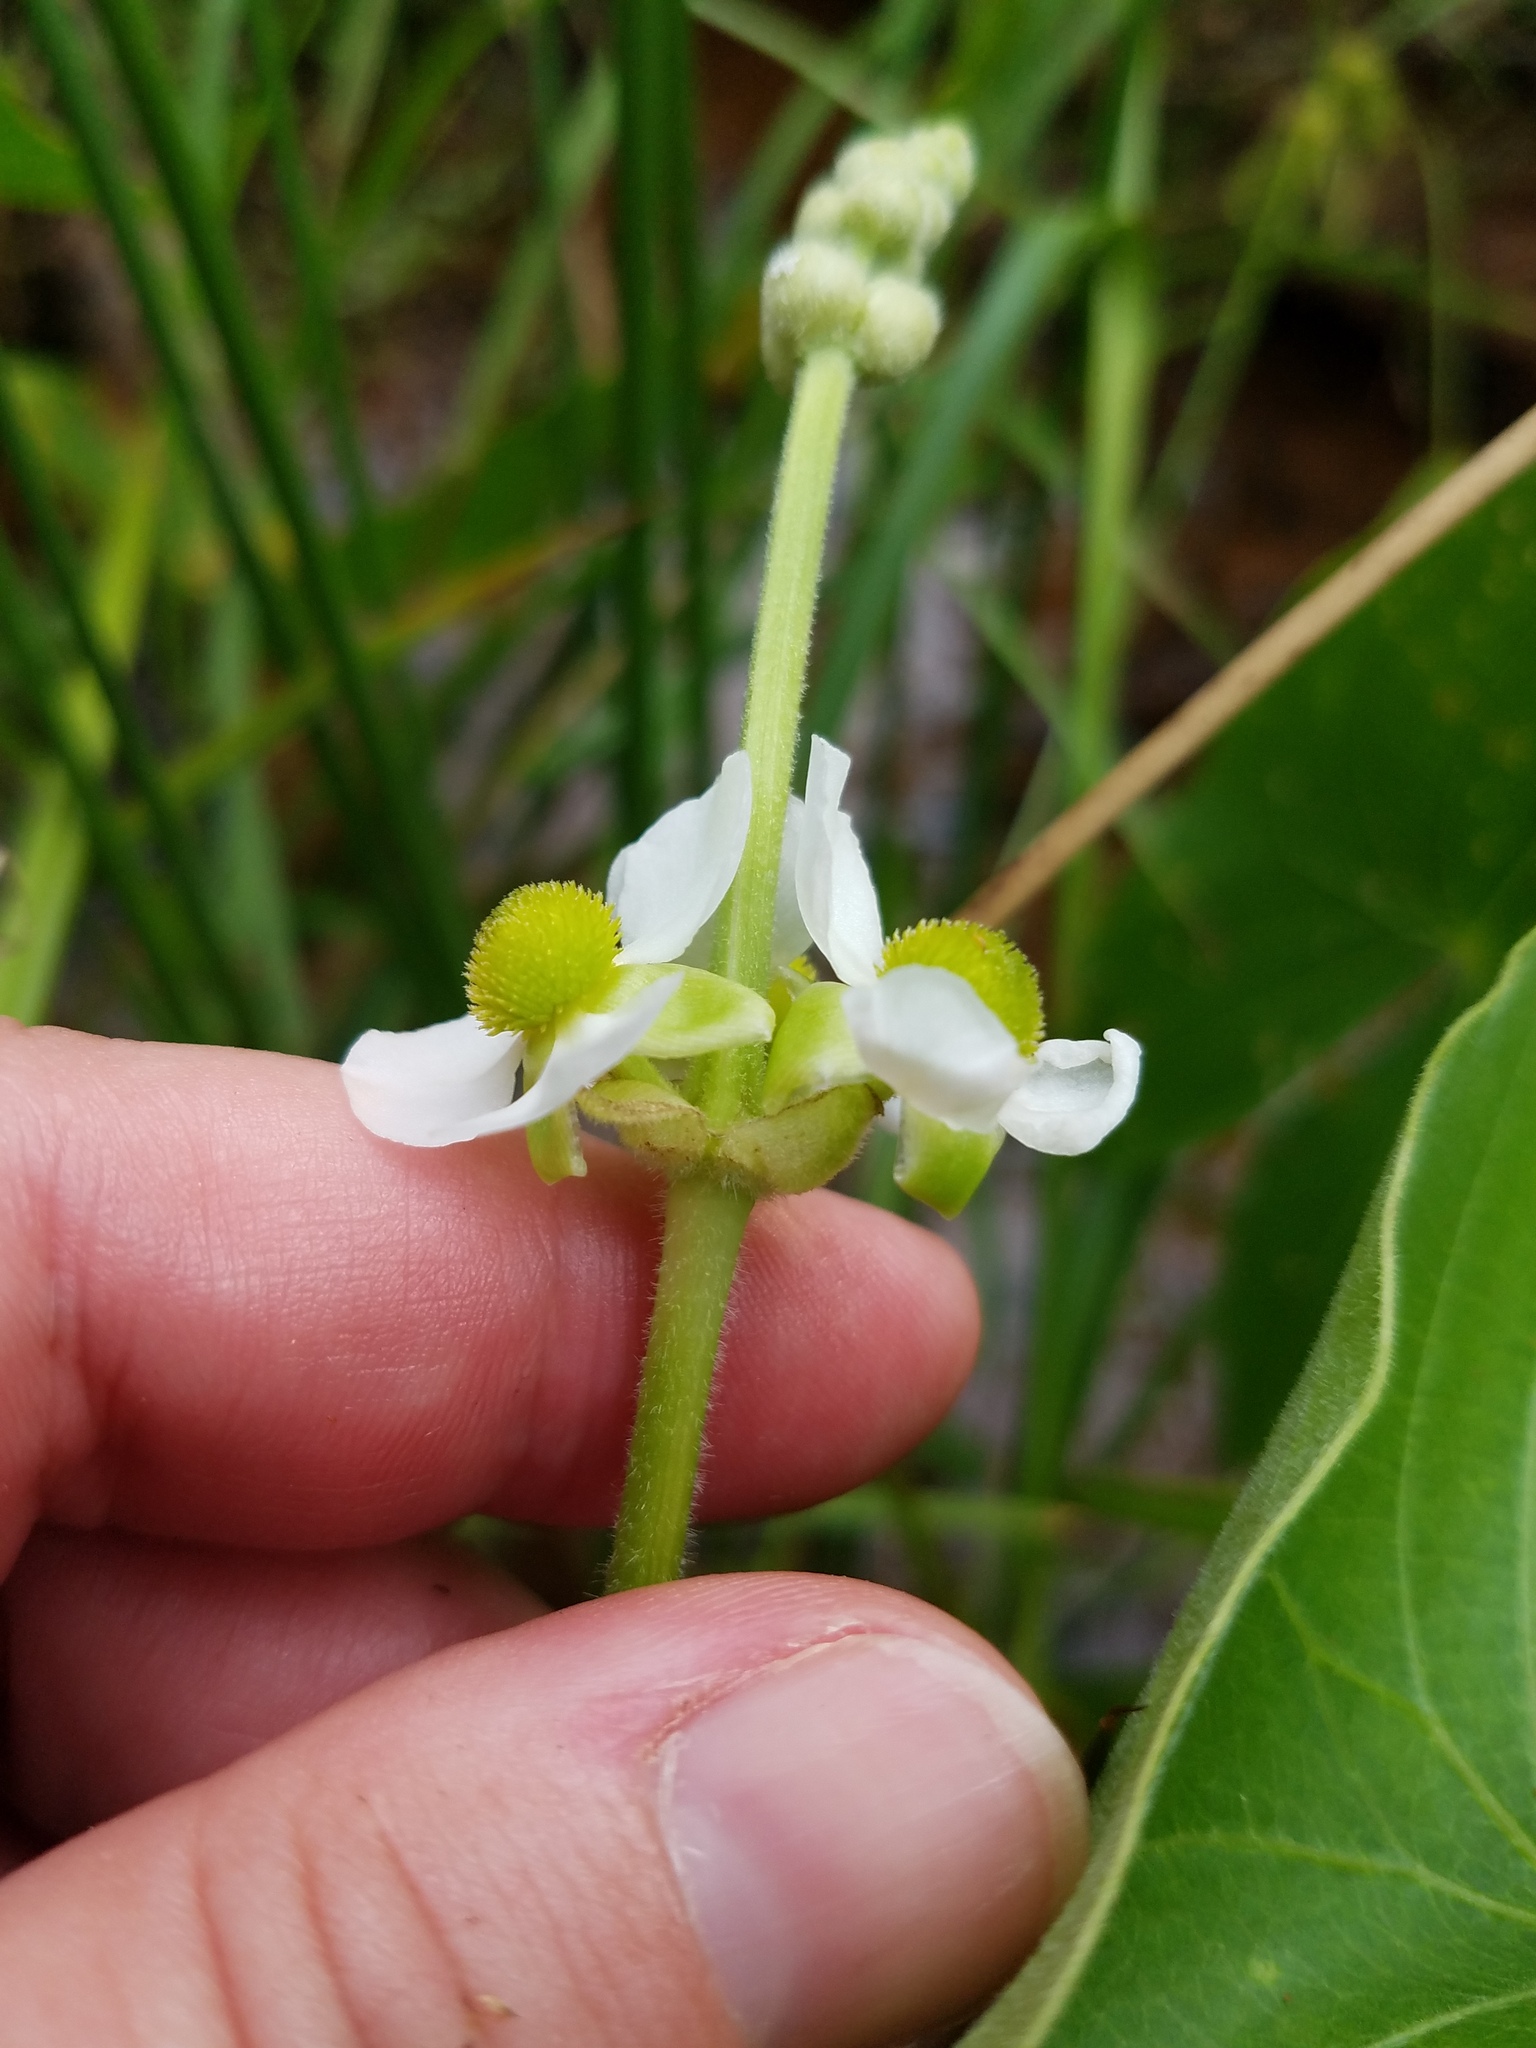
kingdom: Plantae
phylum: Tracheophyta
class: Liliopsida
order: Alismatales
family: Alismataceae
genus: Sagittaria
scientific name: Sagittaria latifolia
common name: Duck-potato
